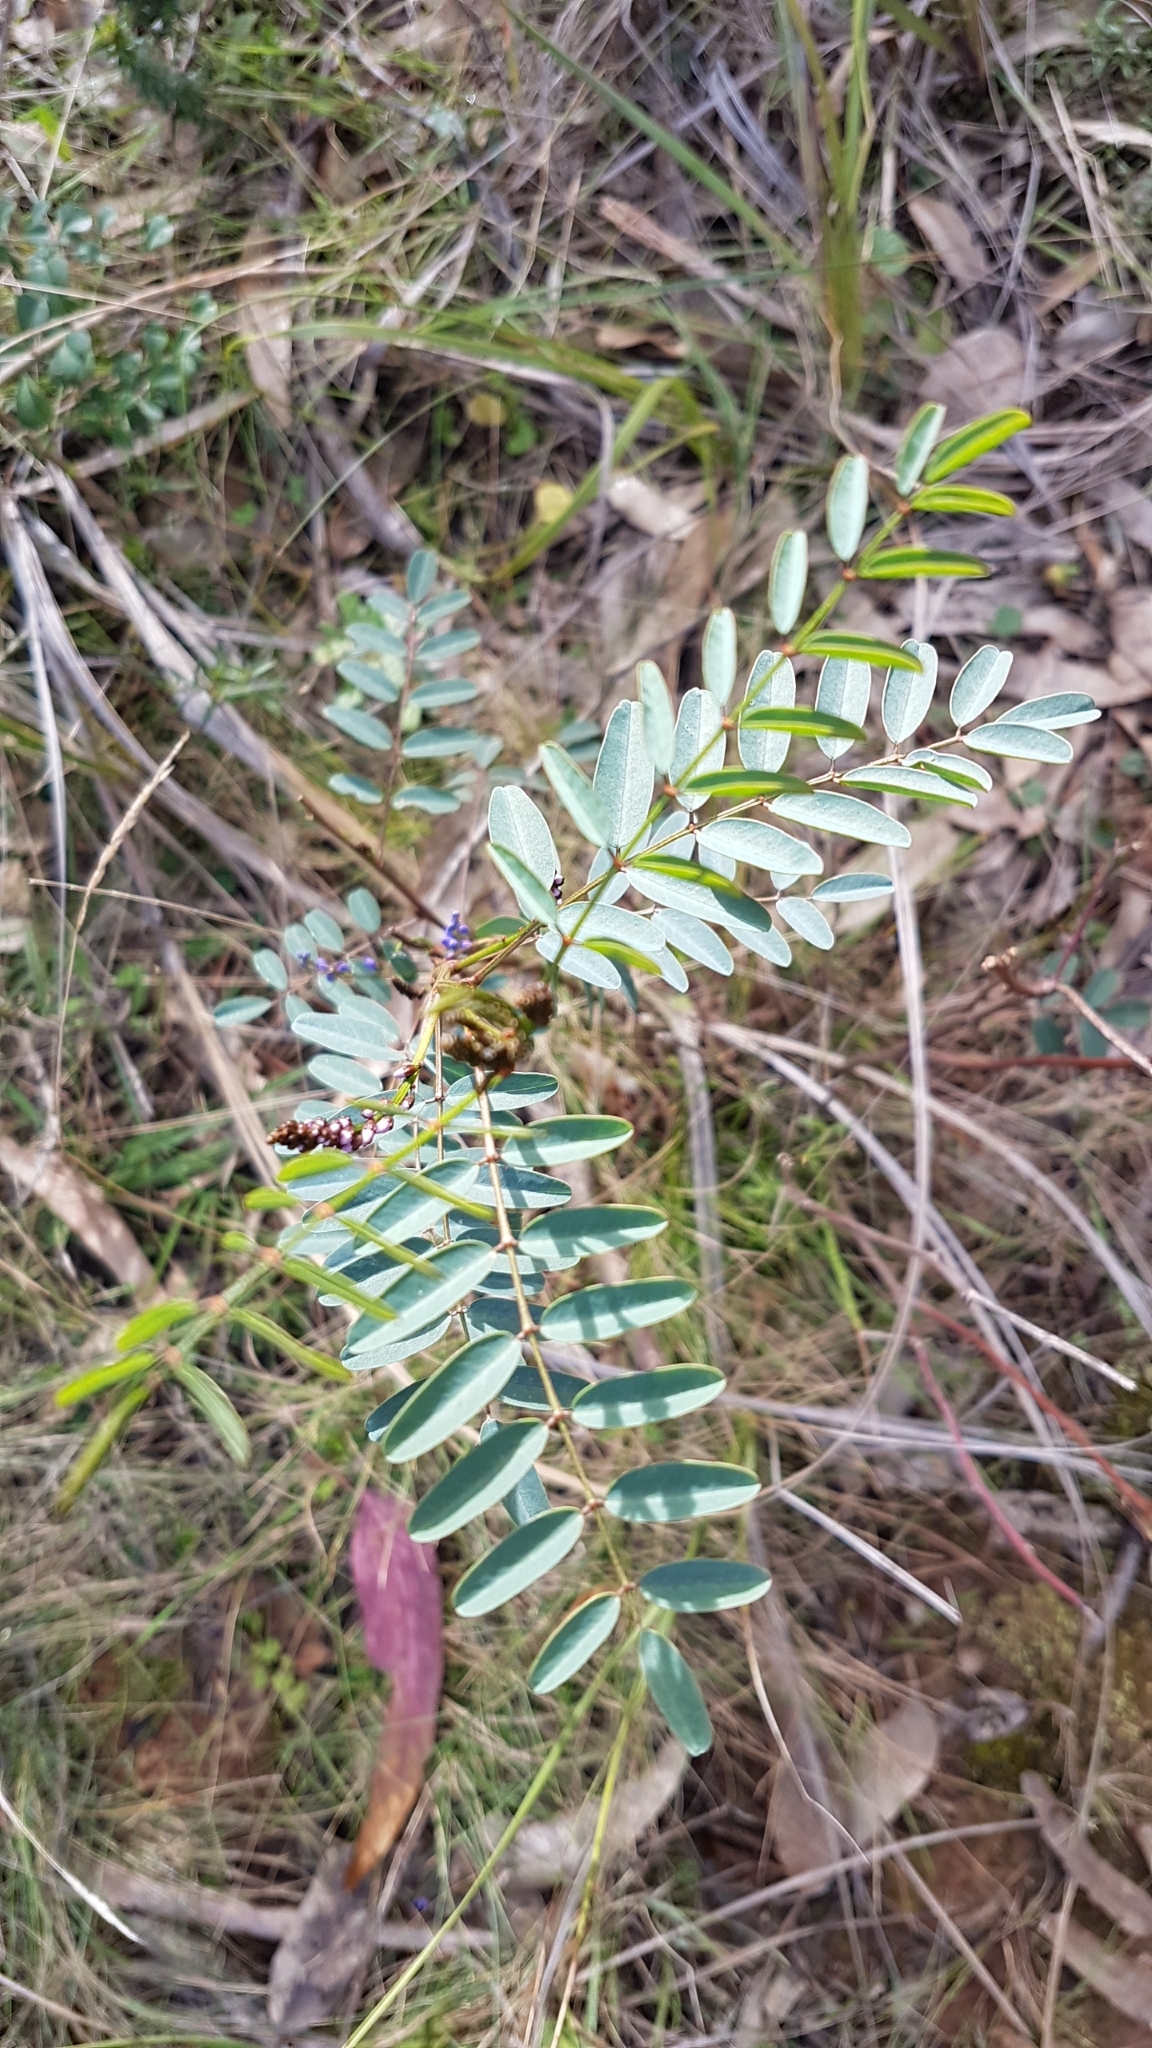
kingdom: Plantae
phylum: Tracheophyta
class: Magnoliopsida
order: Fabales
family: Fabaceae
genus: Indigofera
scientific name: Indigofera australis
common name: Australian indigo
